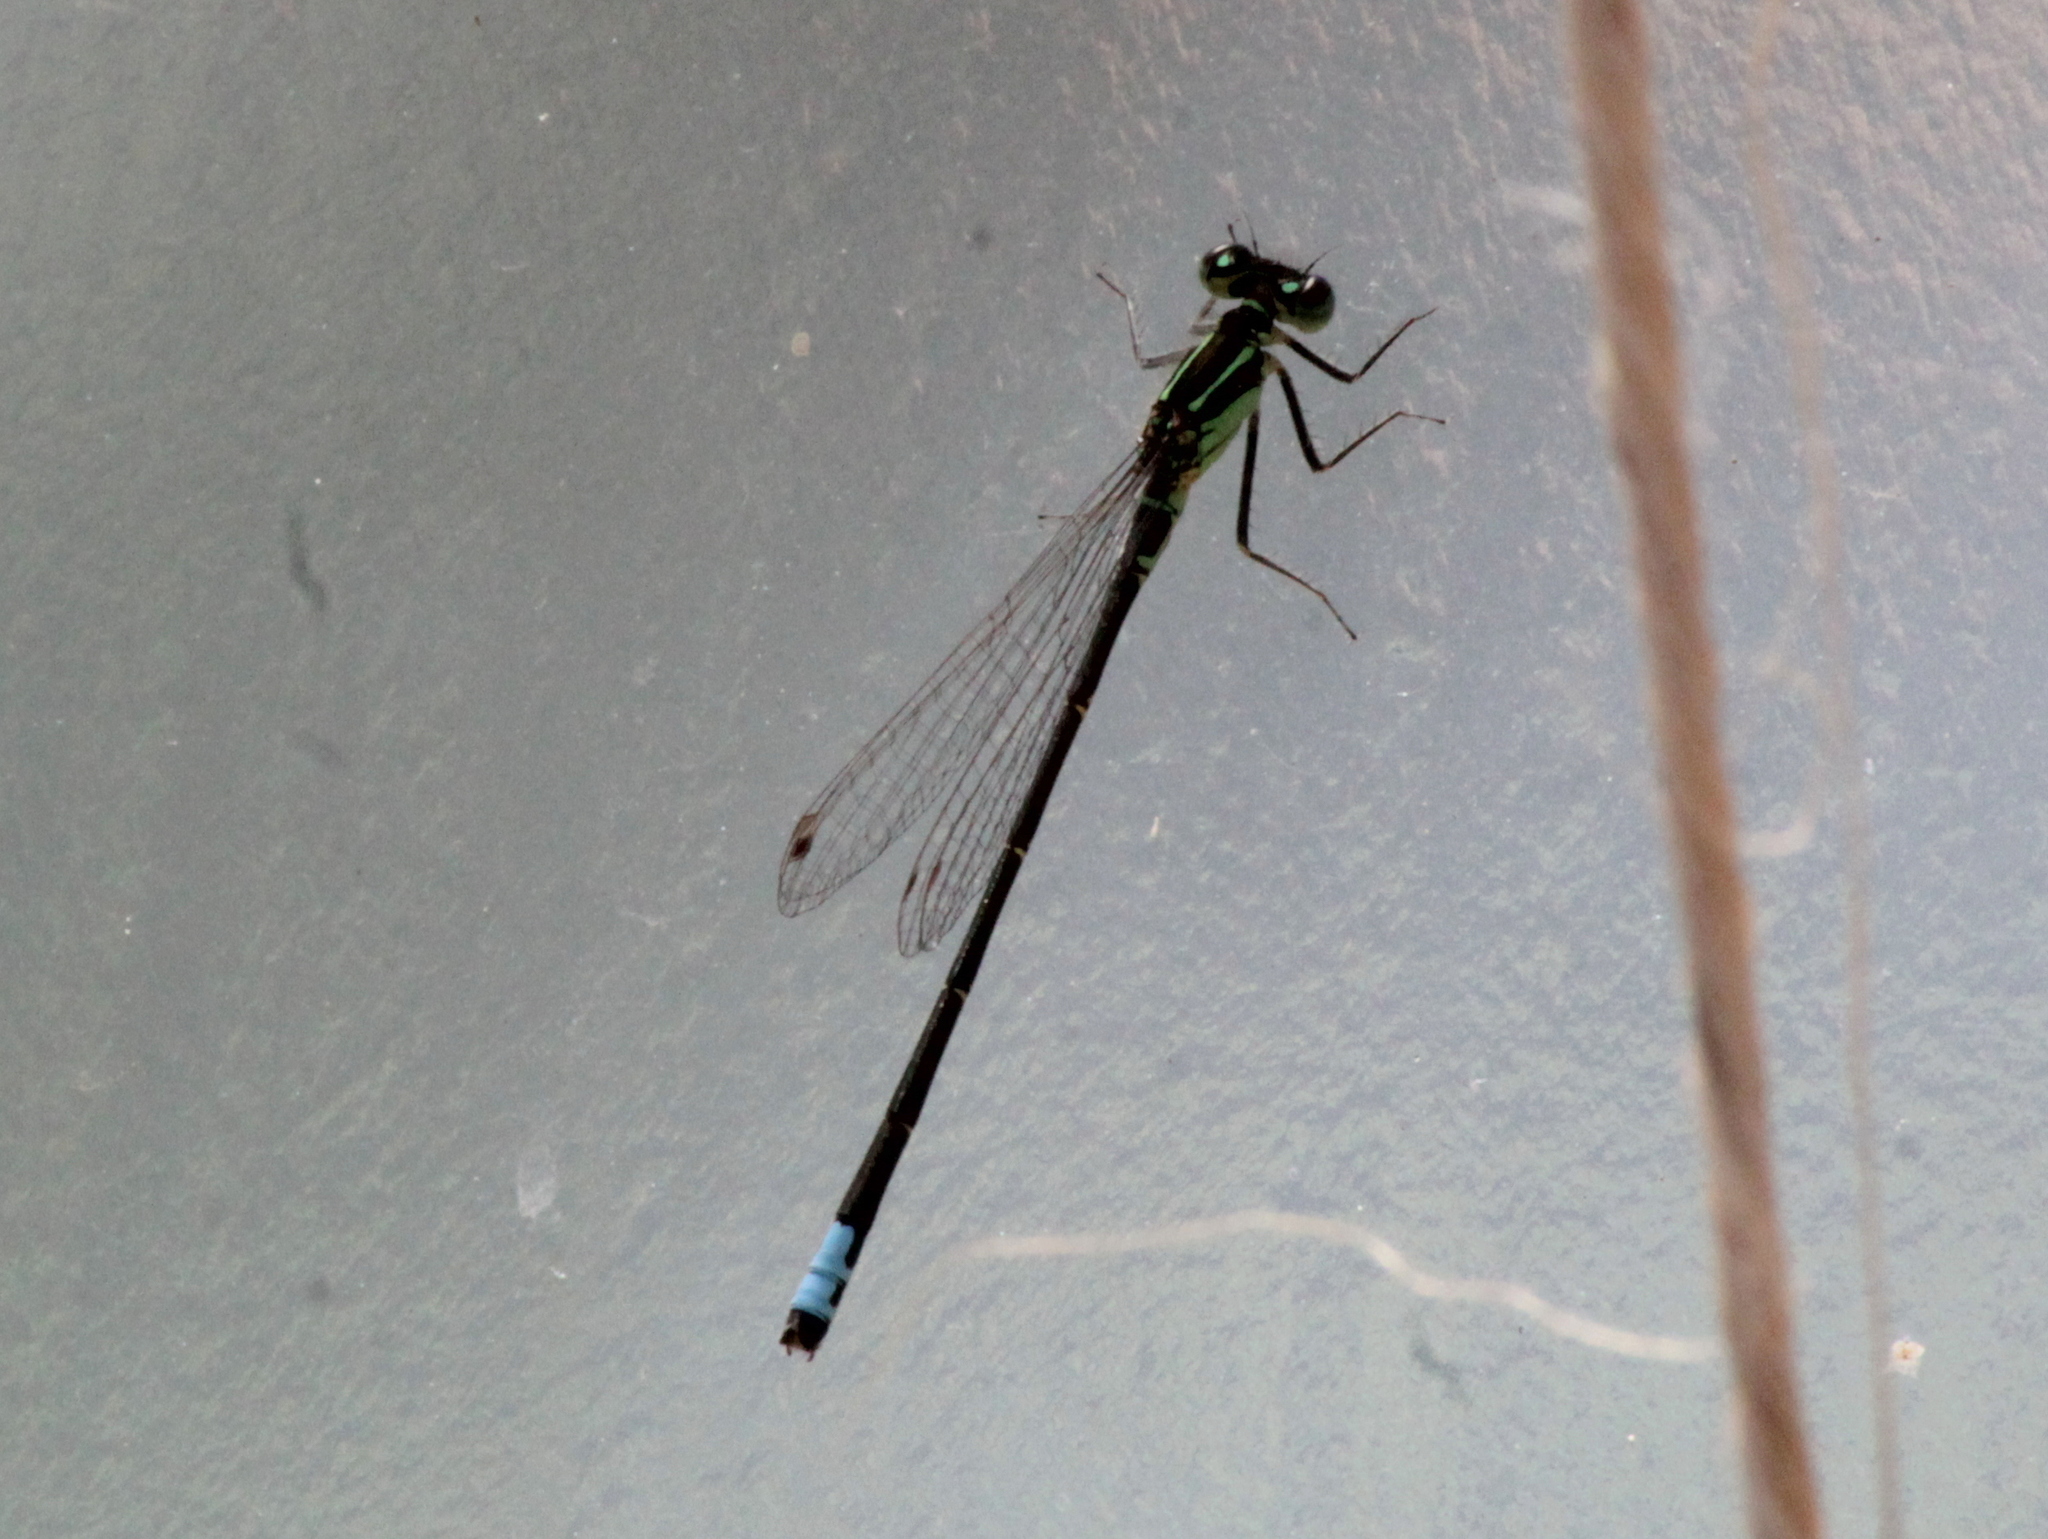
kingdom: Animalia
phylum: Arthropoda
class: Insecta
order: Odonata
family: Coenagrionidae
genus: Ischnura
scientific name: Ischnura verticalis
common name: Eastern forktail
